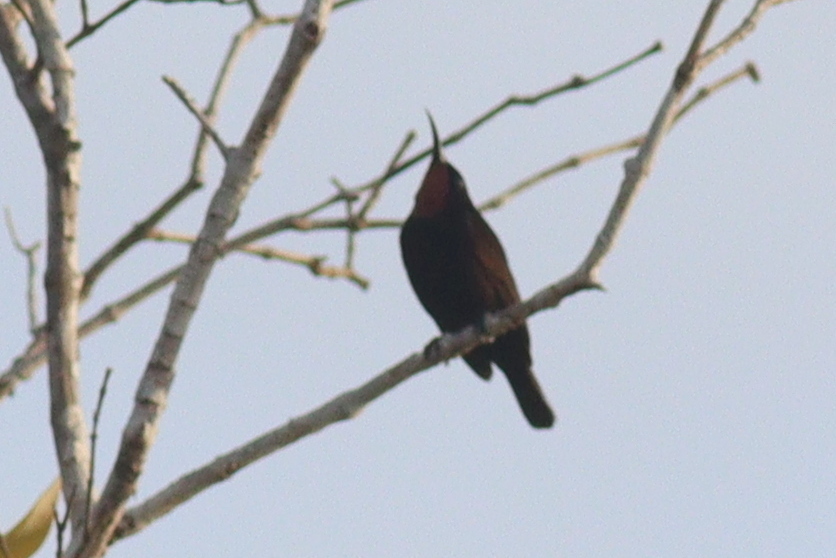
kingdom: Animalia
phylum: Chordata
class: Aves
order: Passeriformes
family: Nectariniidae
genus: Chalcomitra
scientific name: Chalcomitra amethystina
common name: Amethyst sunbird
